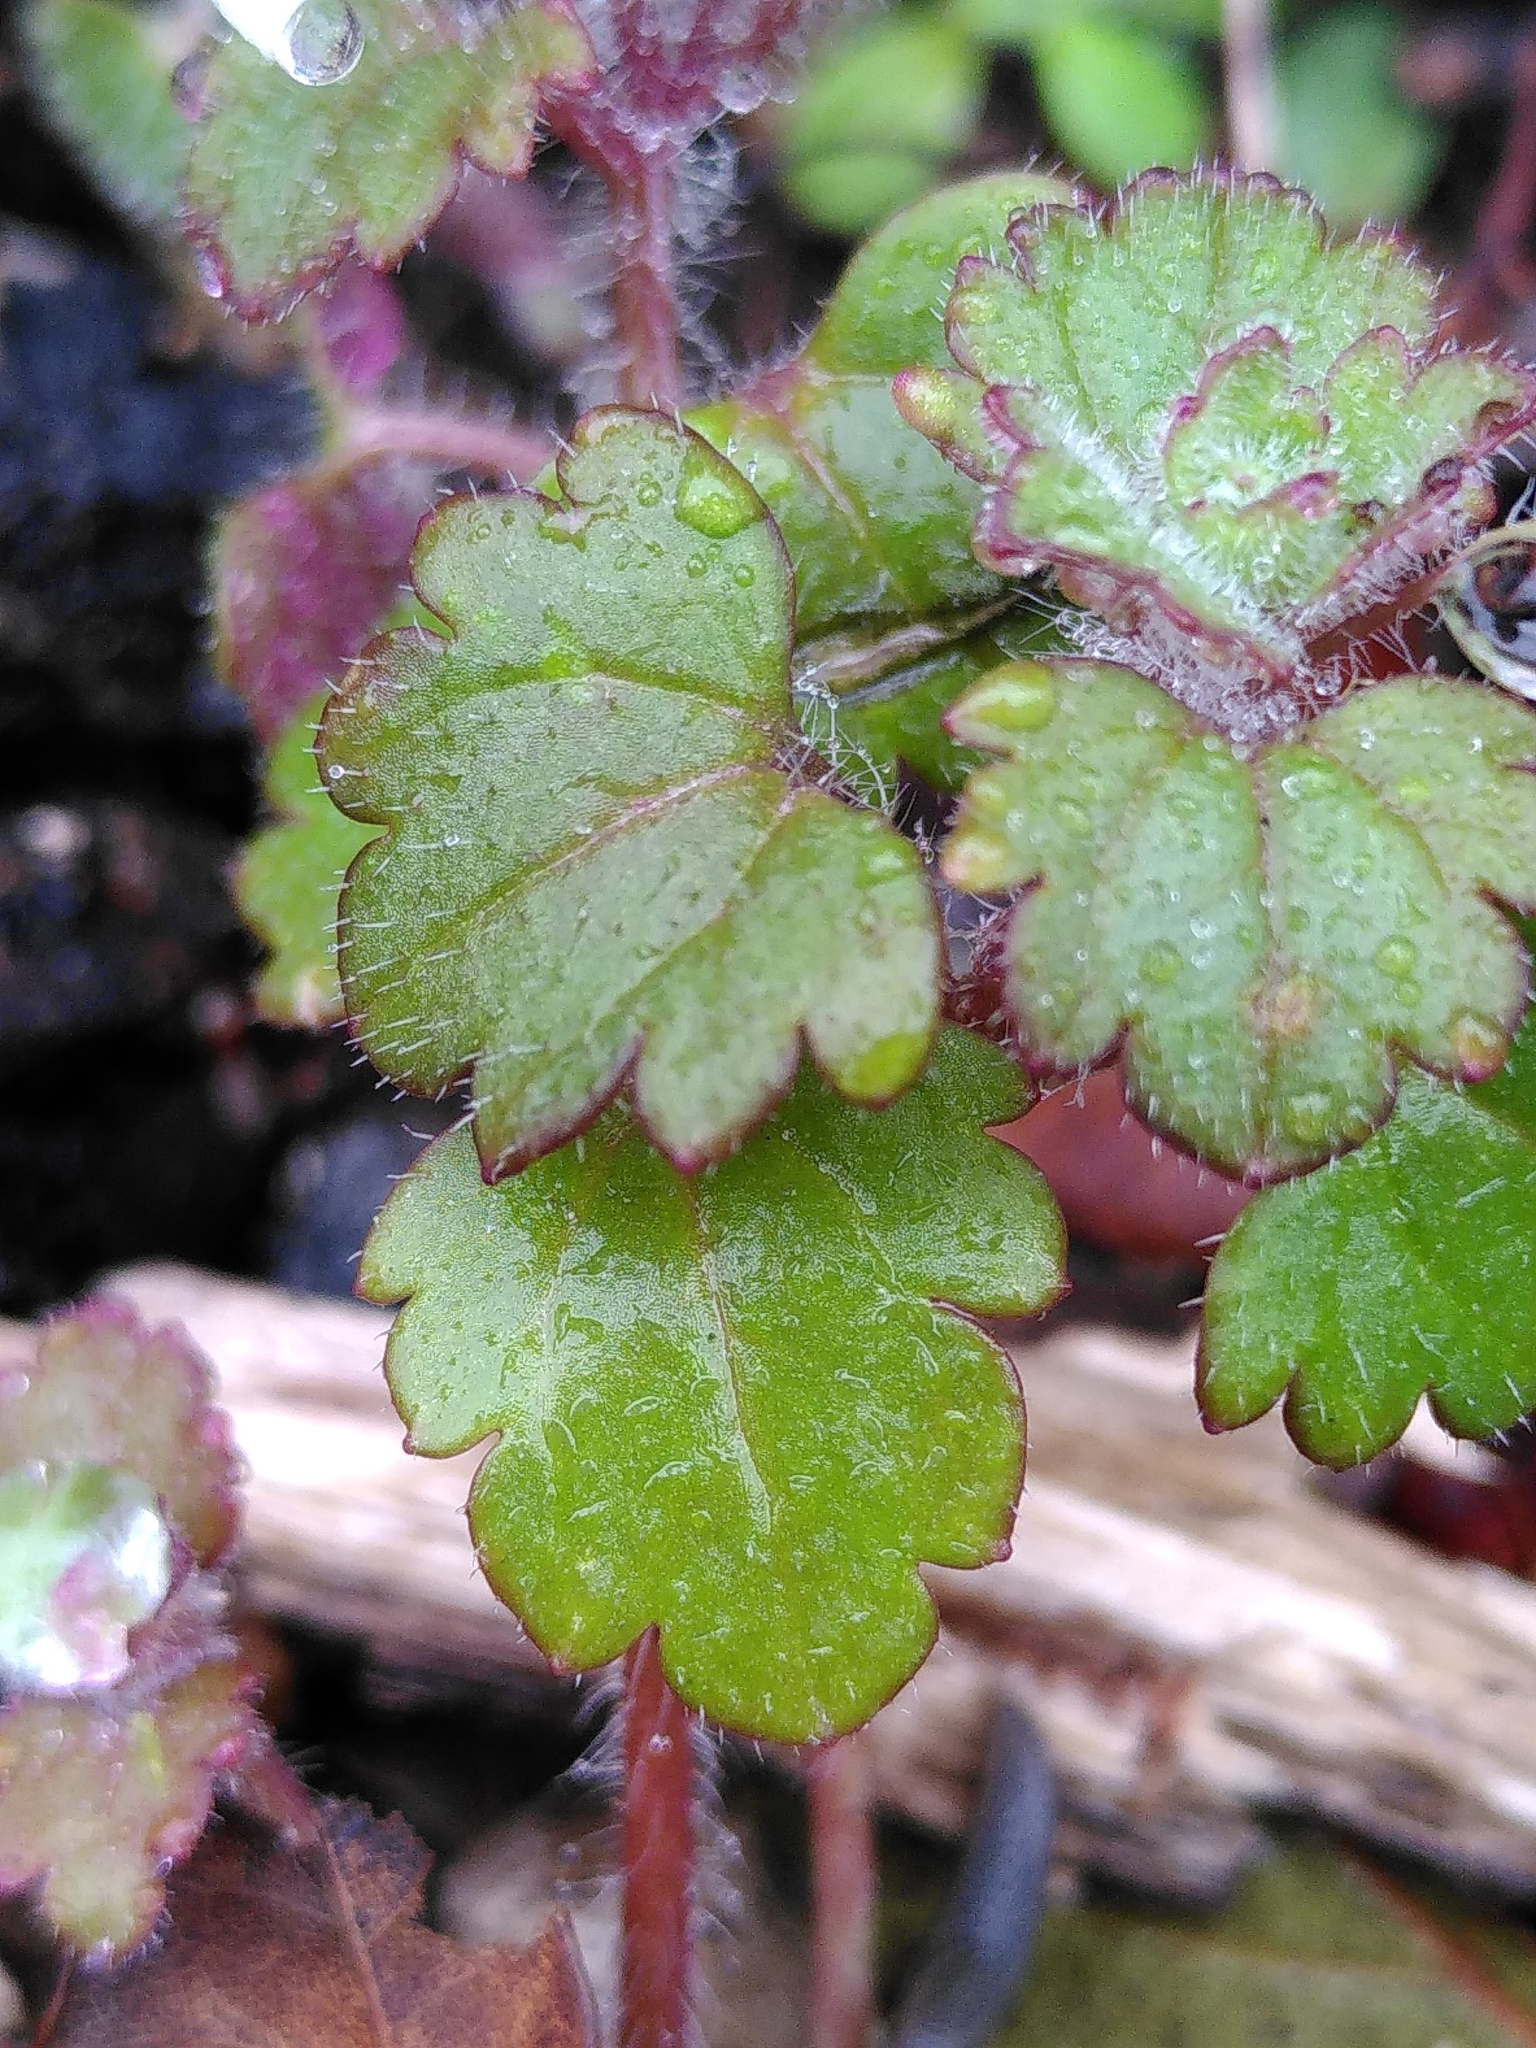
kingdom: Plantae
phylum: Tracheophyta
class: Magnoliopsida
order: Lamiales
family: Plantaginaceae
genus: Veronica
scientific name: Veronica cymbalaria
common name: Pale speedwell
